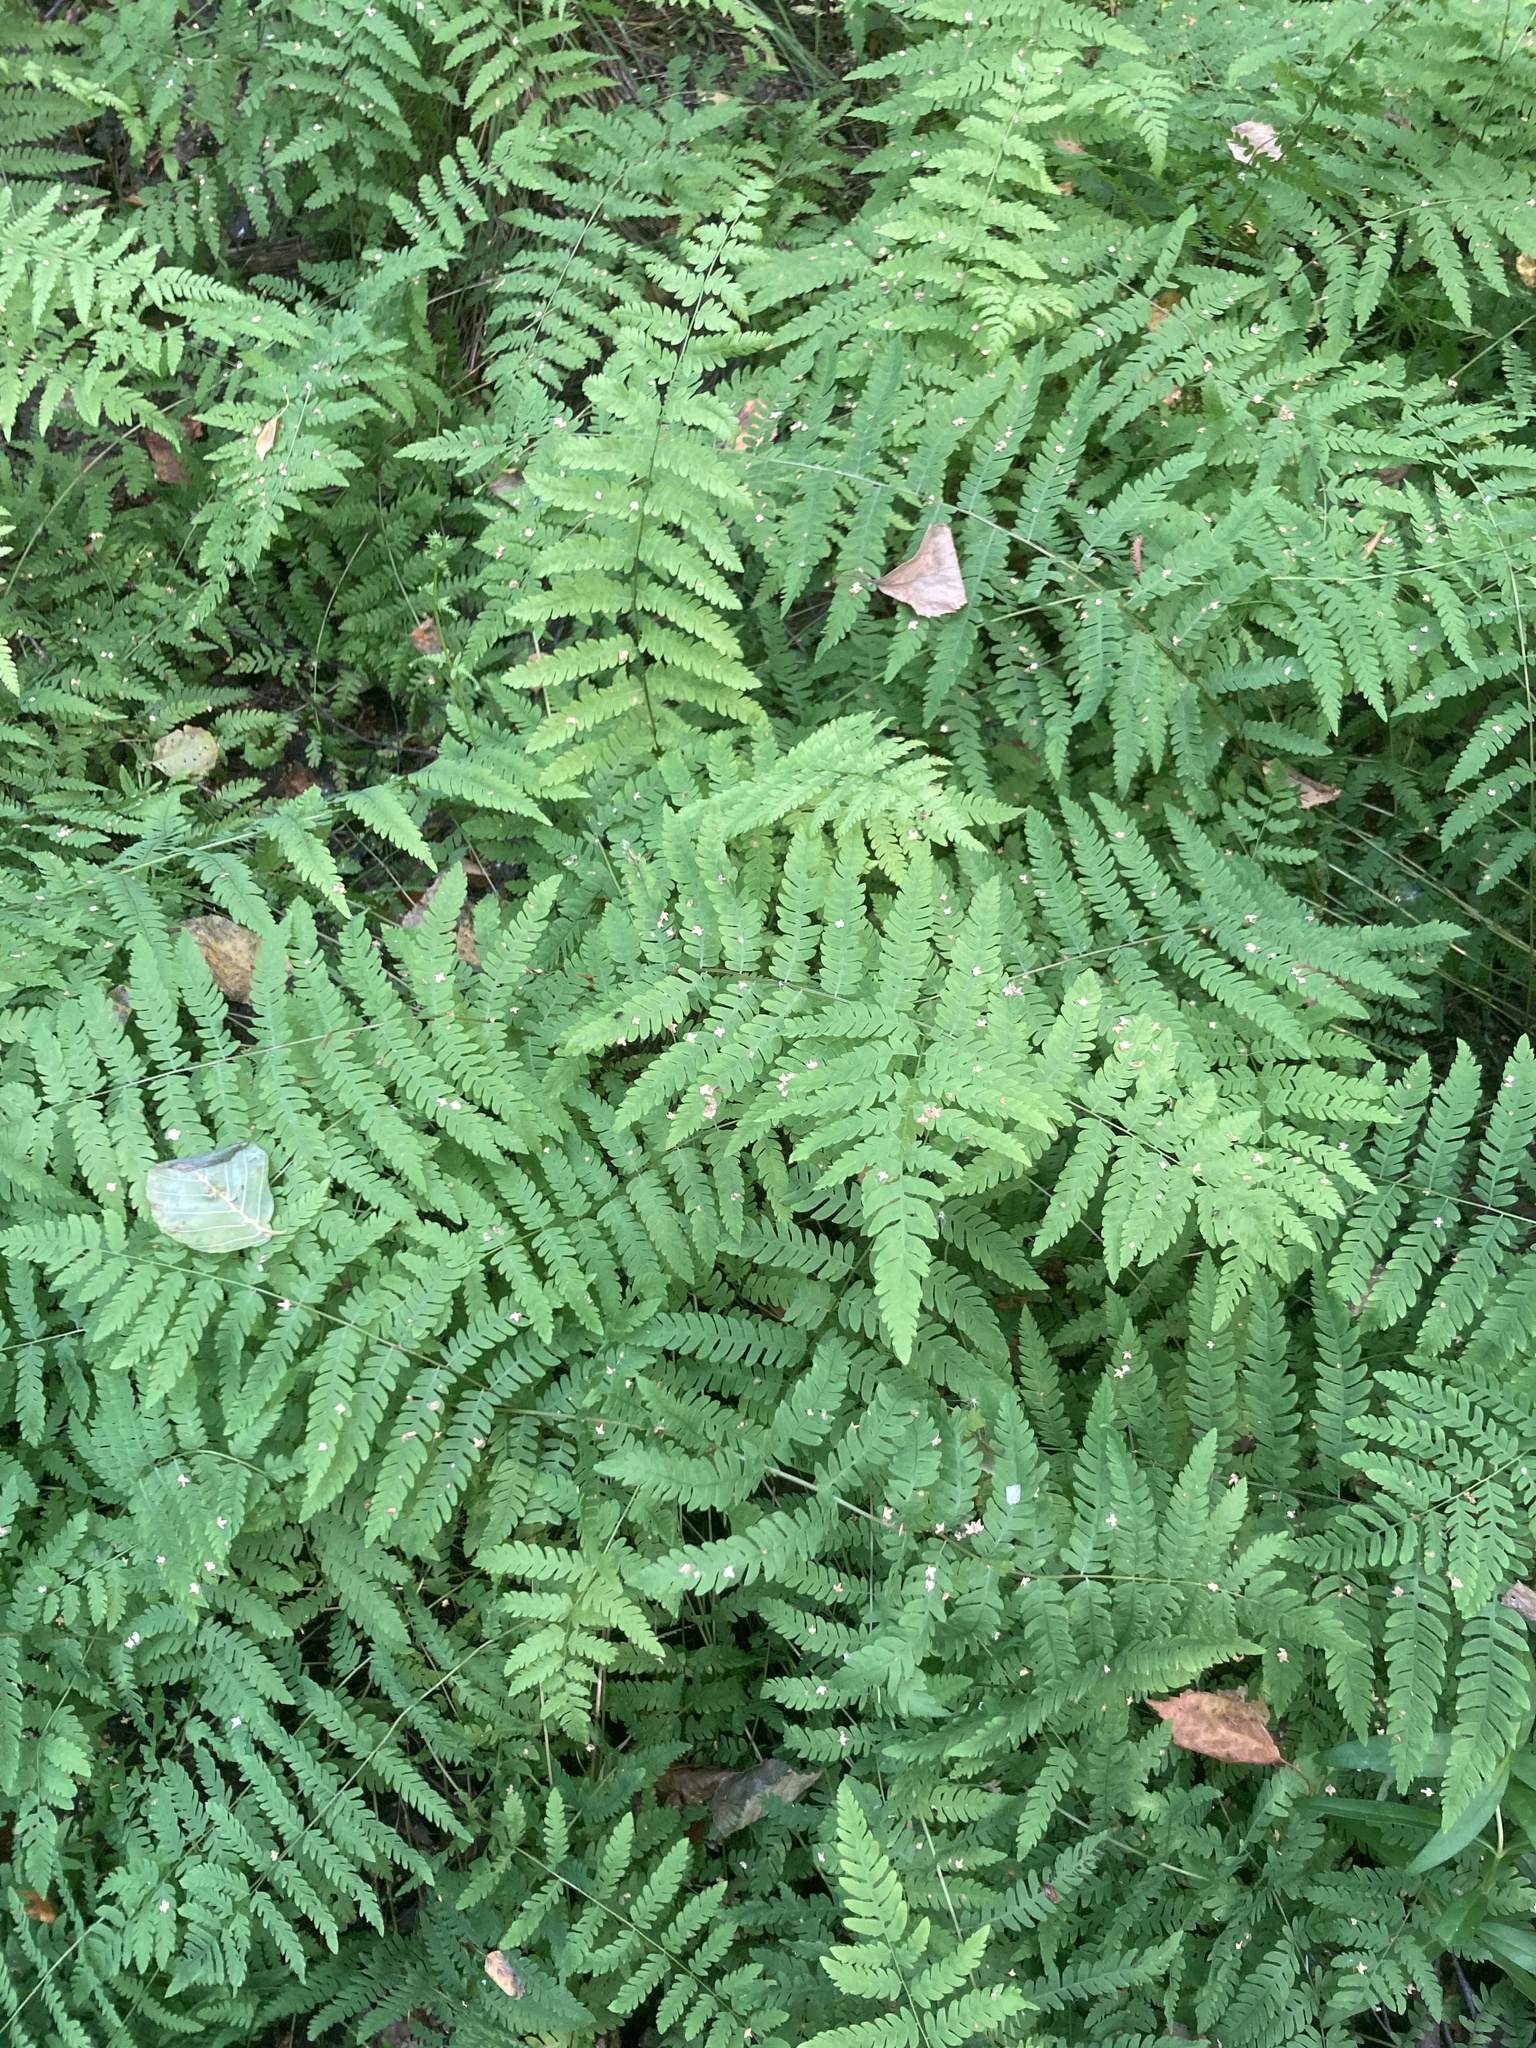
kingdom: Plantae
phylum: Tracheophyta
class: Polypodiopsida
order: Polypodiales
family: Thelypteridaceae
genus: Thelypteris
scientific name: Thelypteris palustris
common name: Marsh fern
